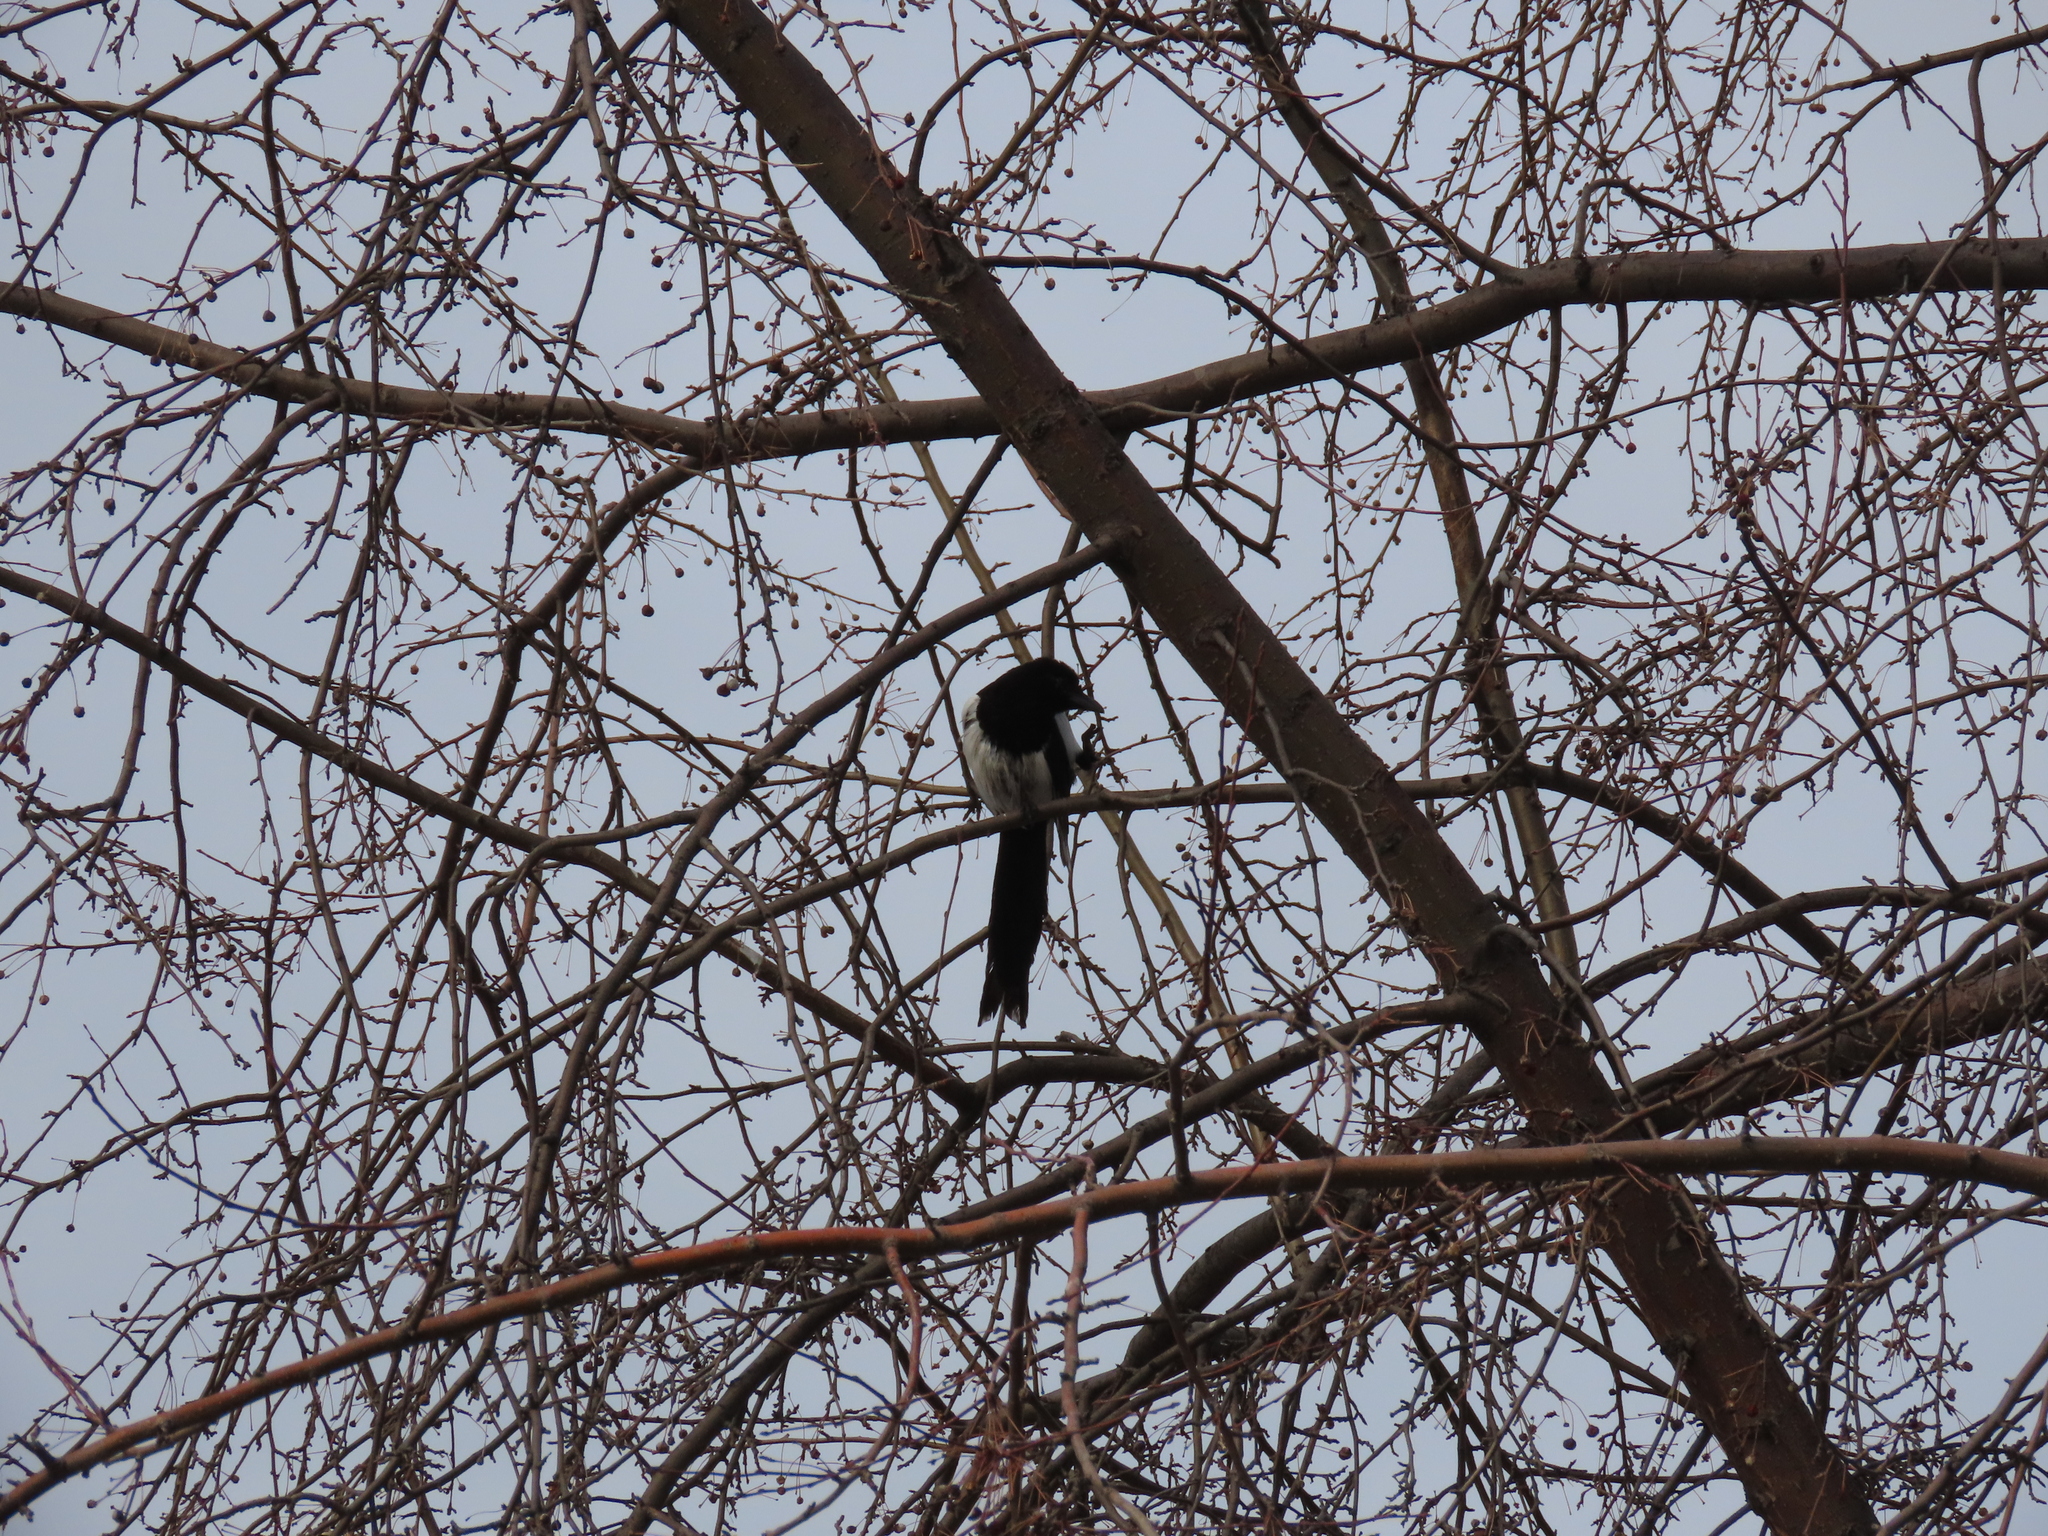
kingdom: Animalia
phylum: Chordata
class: Aves
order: Passeriformes
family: Corvidae
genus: Pica
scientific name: Pica pica
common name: Eurasian magpie
